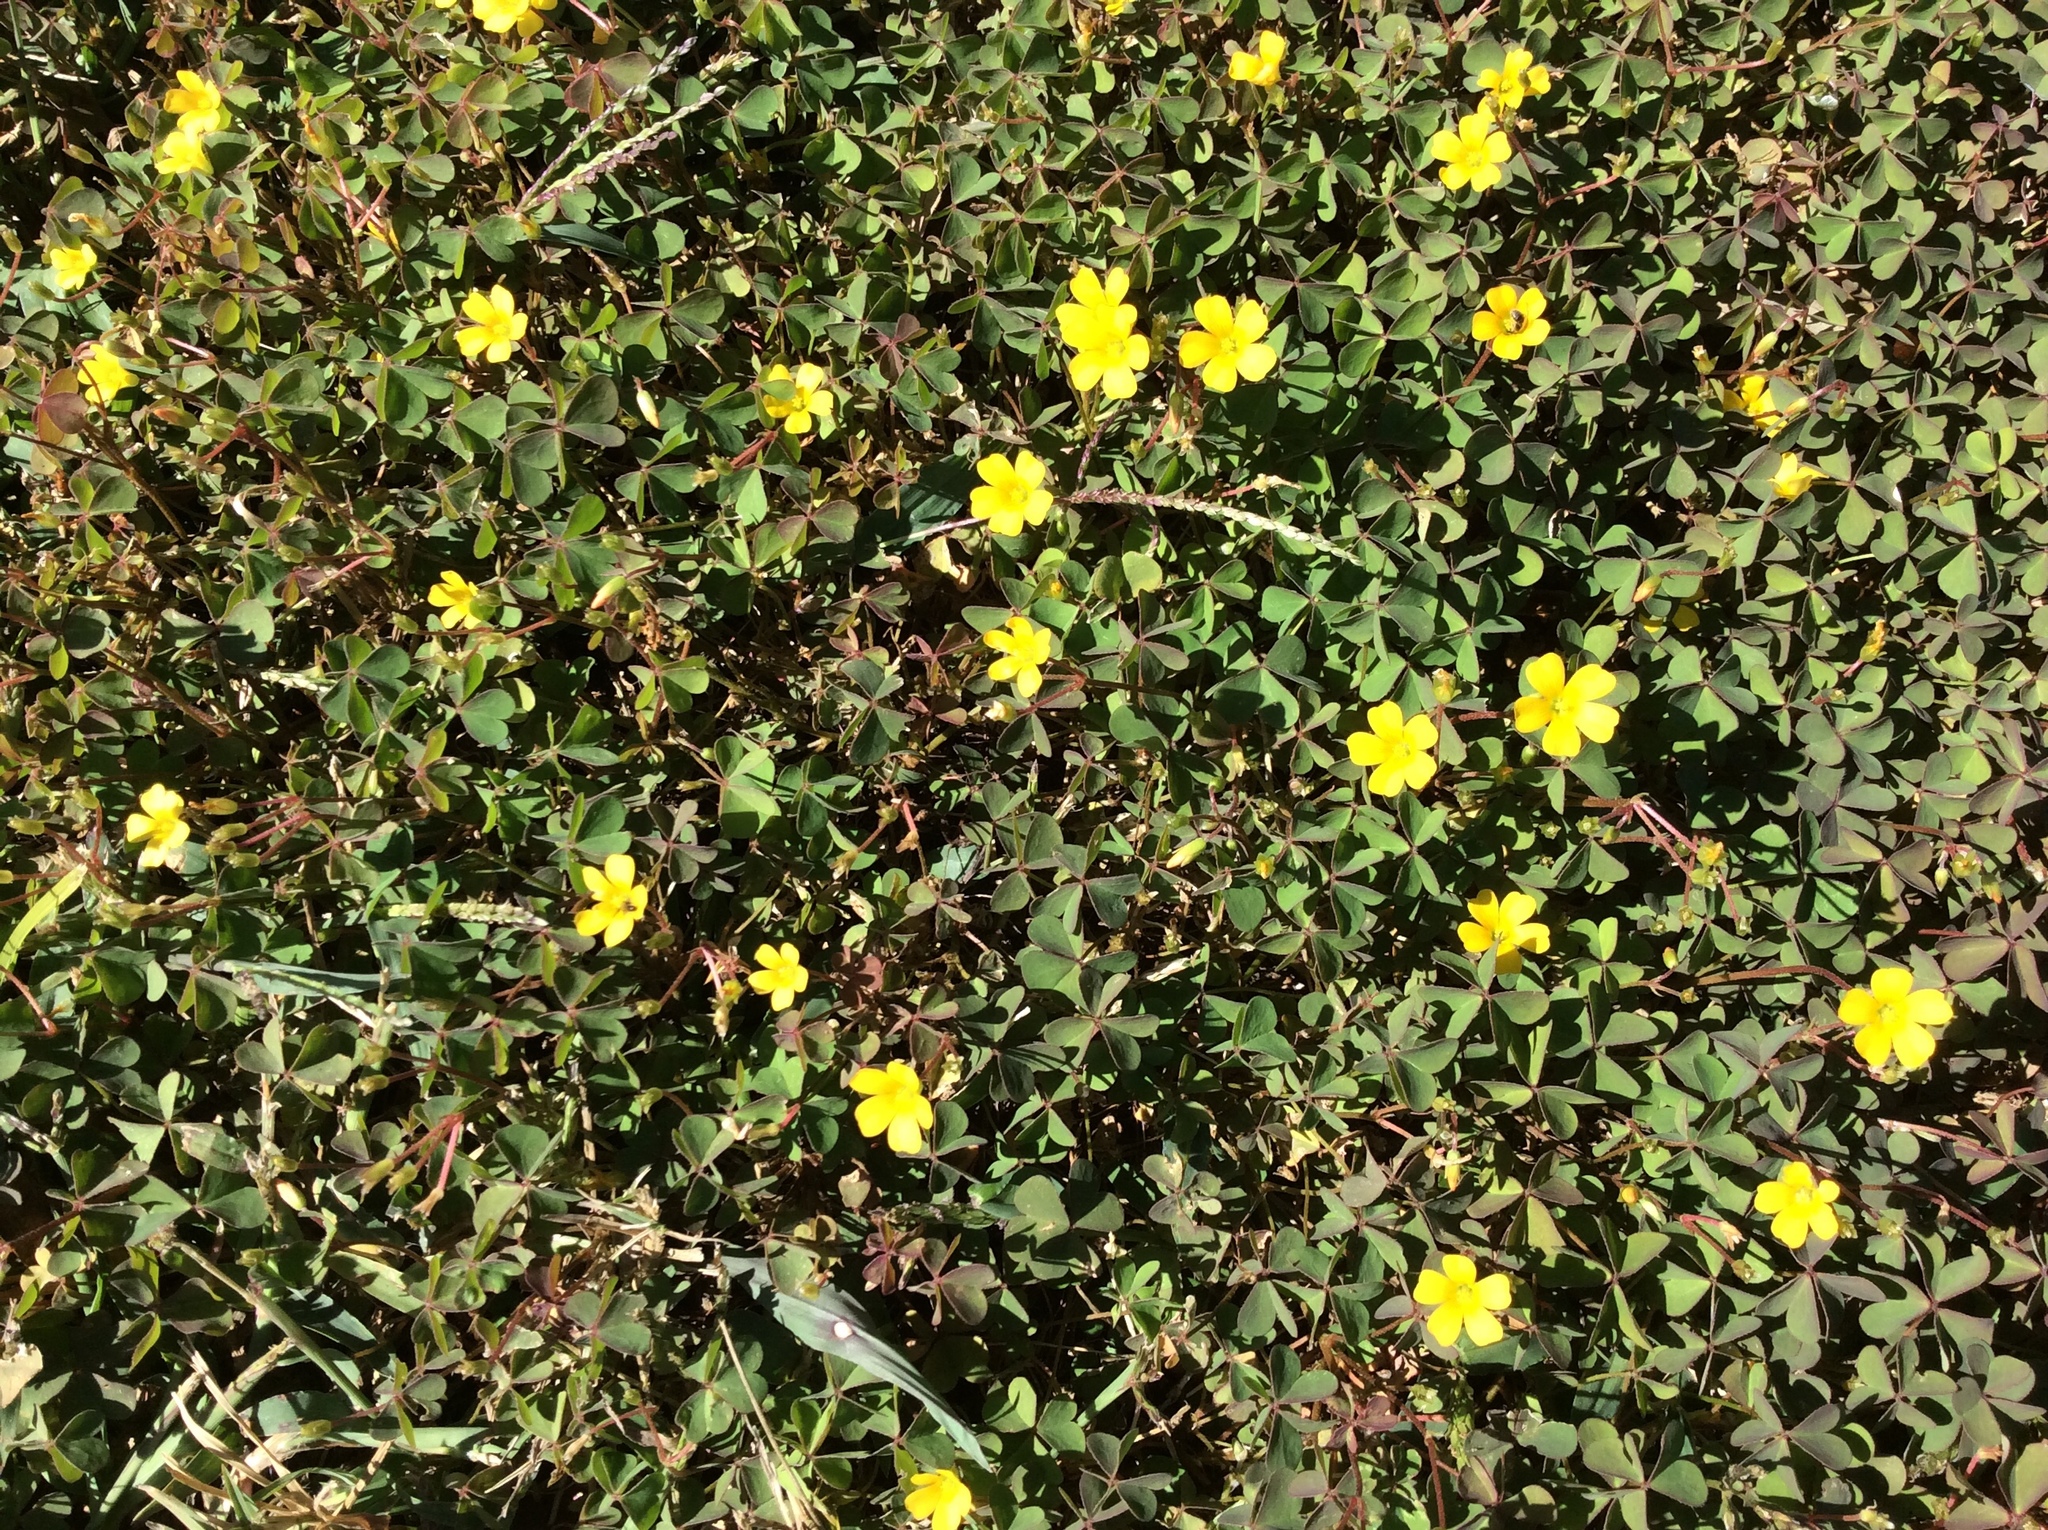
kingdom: Plantae
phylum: Tracheophyta
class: Magnoliopsida
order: Oxalidales
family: Oxalidaceae
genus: Oxalis
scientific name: Oxalis corniculata
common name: Procumbent yellow-sorrel
